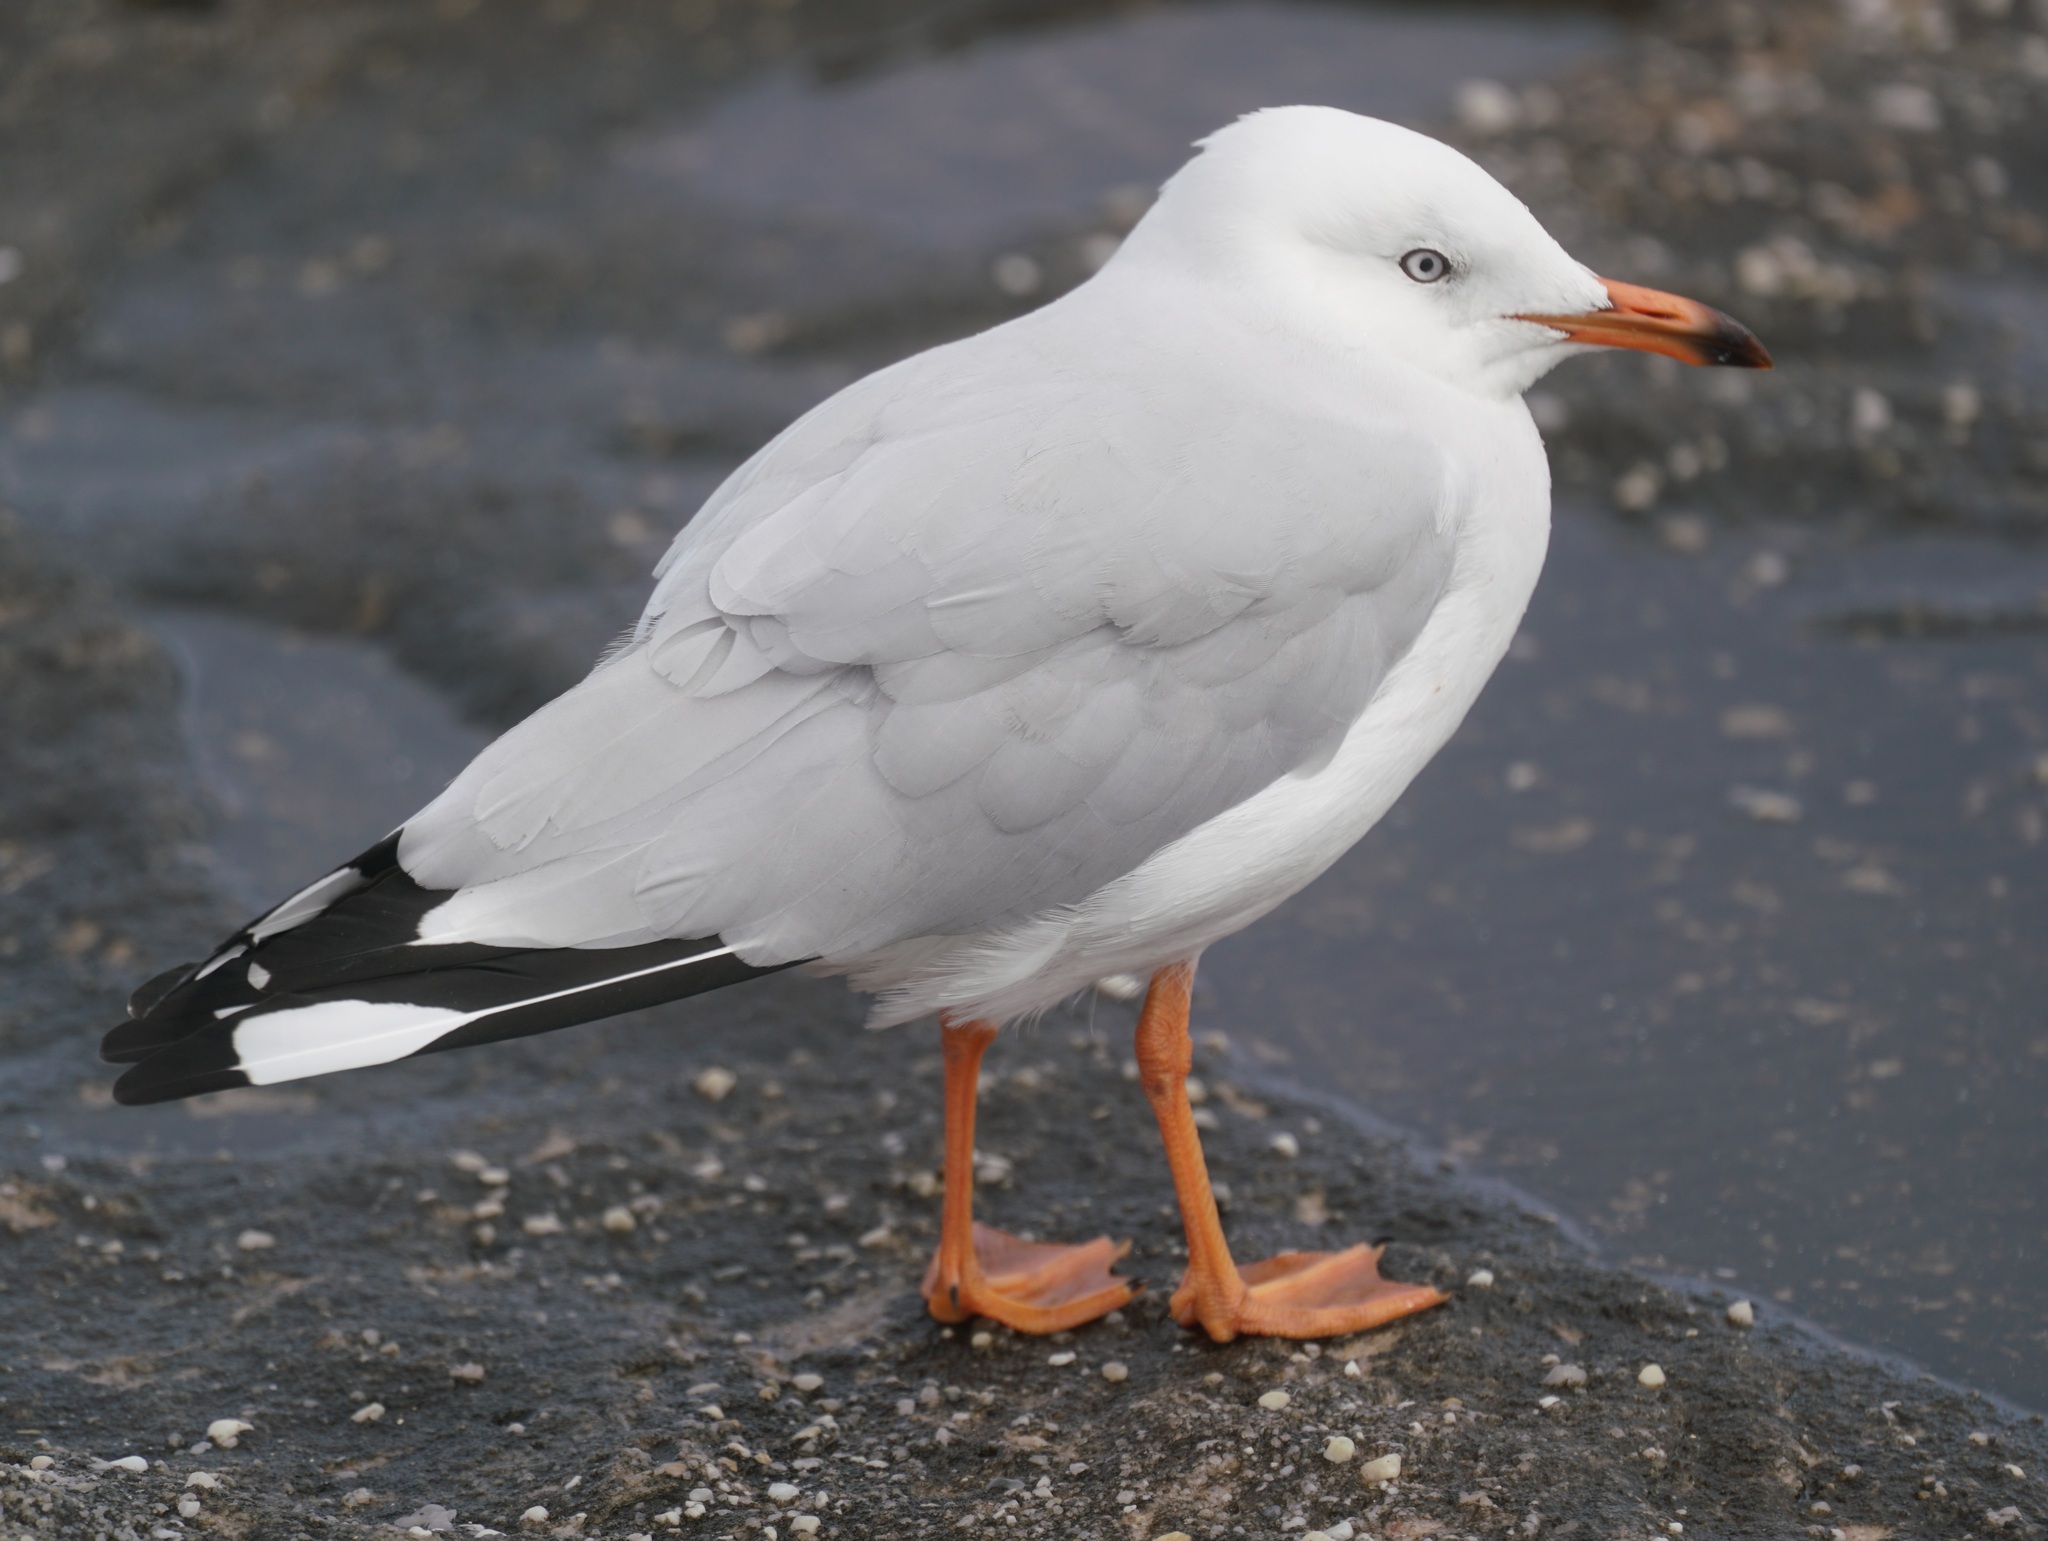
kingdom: Animalia
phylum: Chordata
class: Aves
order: Charadriiformes
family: Laridae
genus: Chroicocephalus
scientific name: Chroicocephalus novaehollandiae
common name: Silver gull
